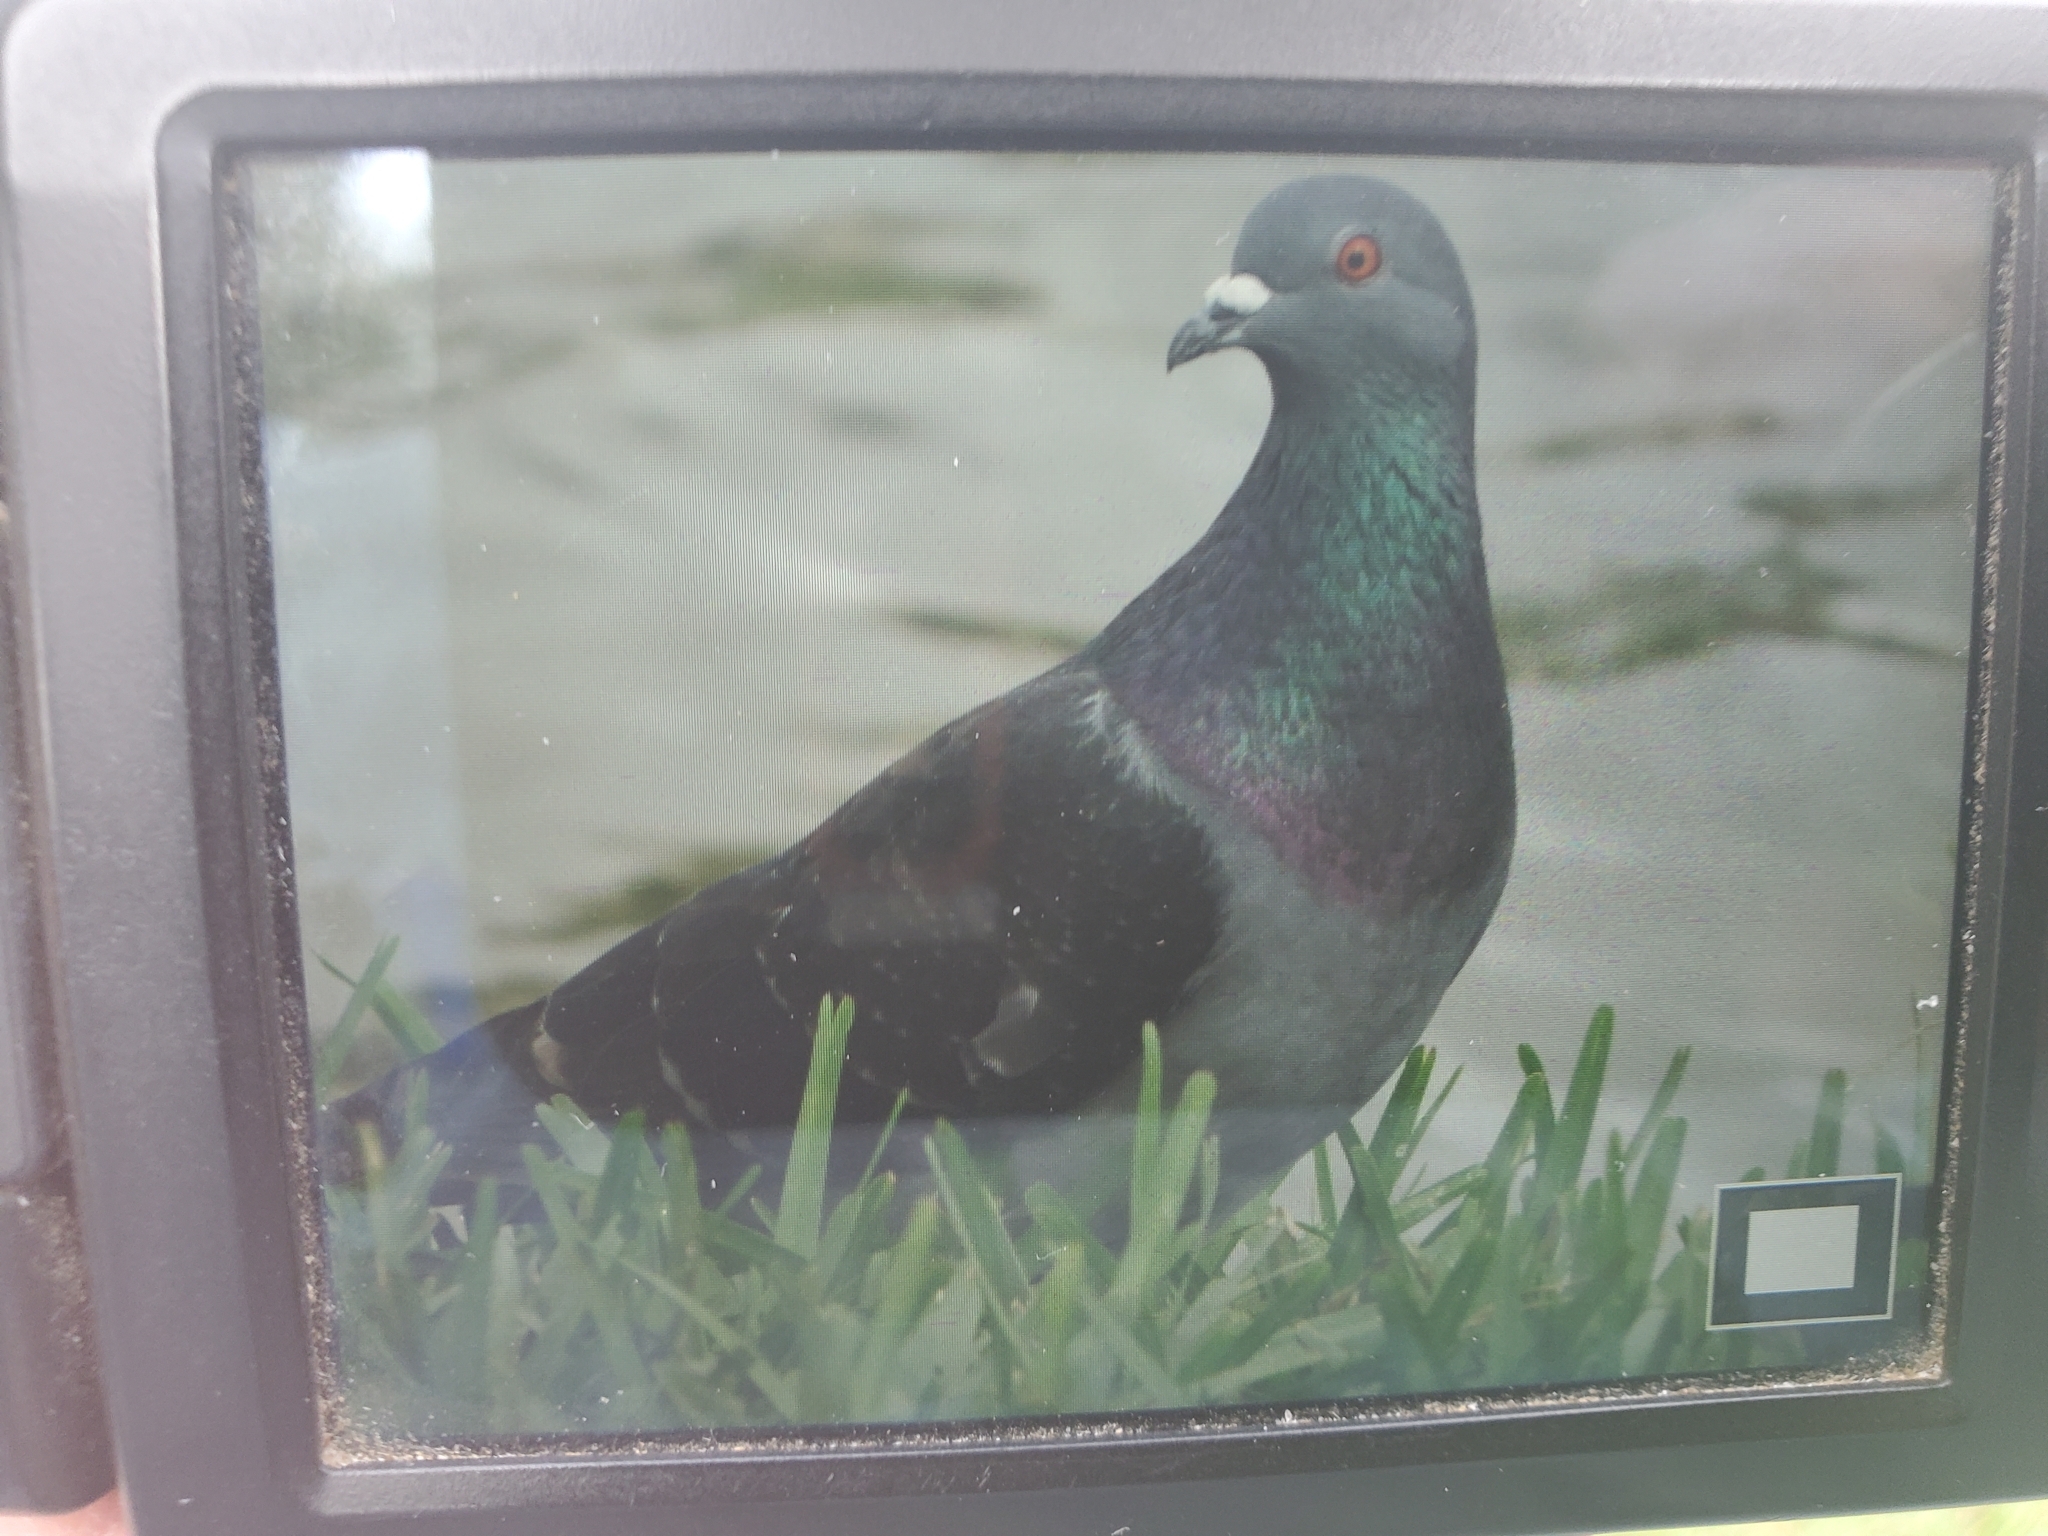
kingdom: Animalia
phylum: Chordata
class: Aves
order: Columbiformes
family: Columbidae
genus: Columba
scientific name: Columba livia
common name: Rock pigeon
